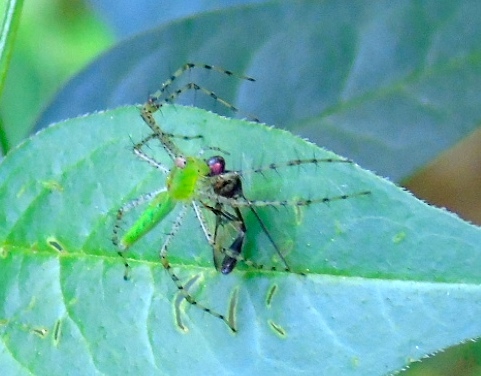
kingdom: Animalia
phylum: Arthropoda
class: Arachnida
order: Araneae
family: Oxyopidae
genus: Peucetia
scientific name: Peucetia viridans
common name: Lynx spiders
